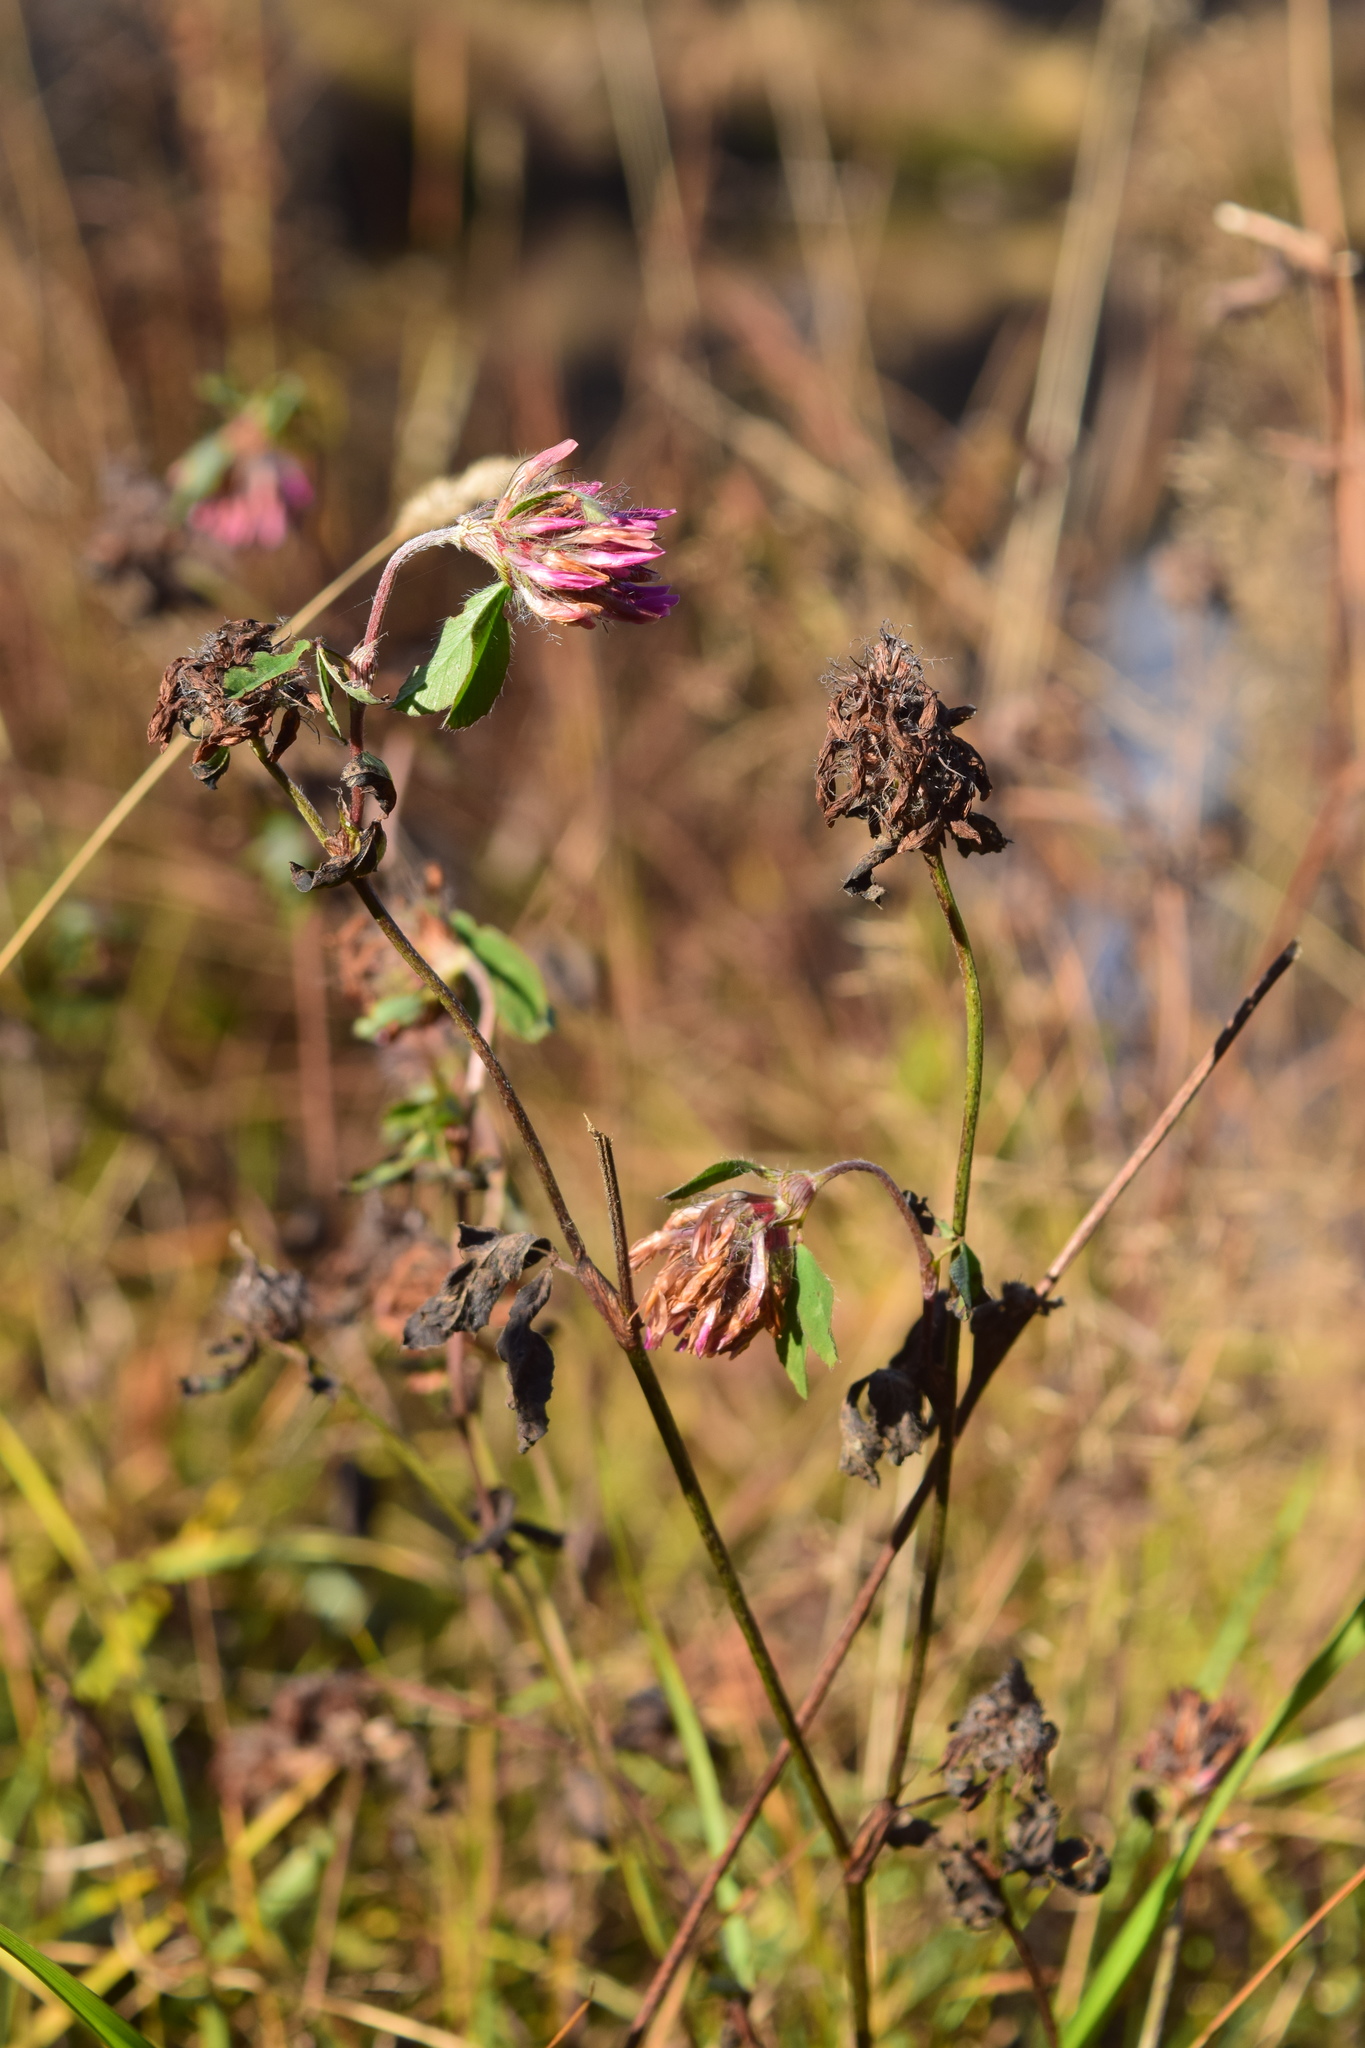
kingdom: Plantae
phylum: Tracheophyta
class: Magnoliopsida
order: Fabales
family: Fabaceae
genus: Trifolium
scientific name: Trifolium pratense
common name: Red clover
